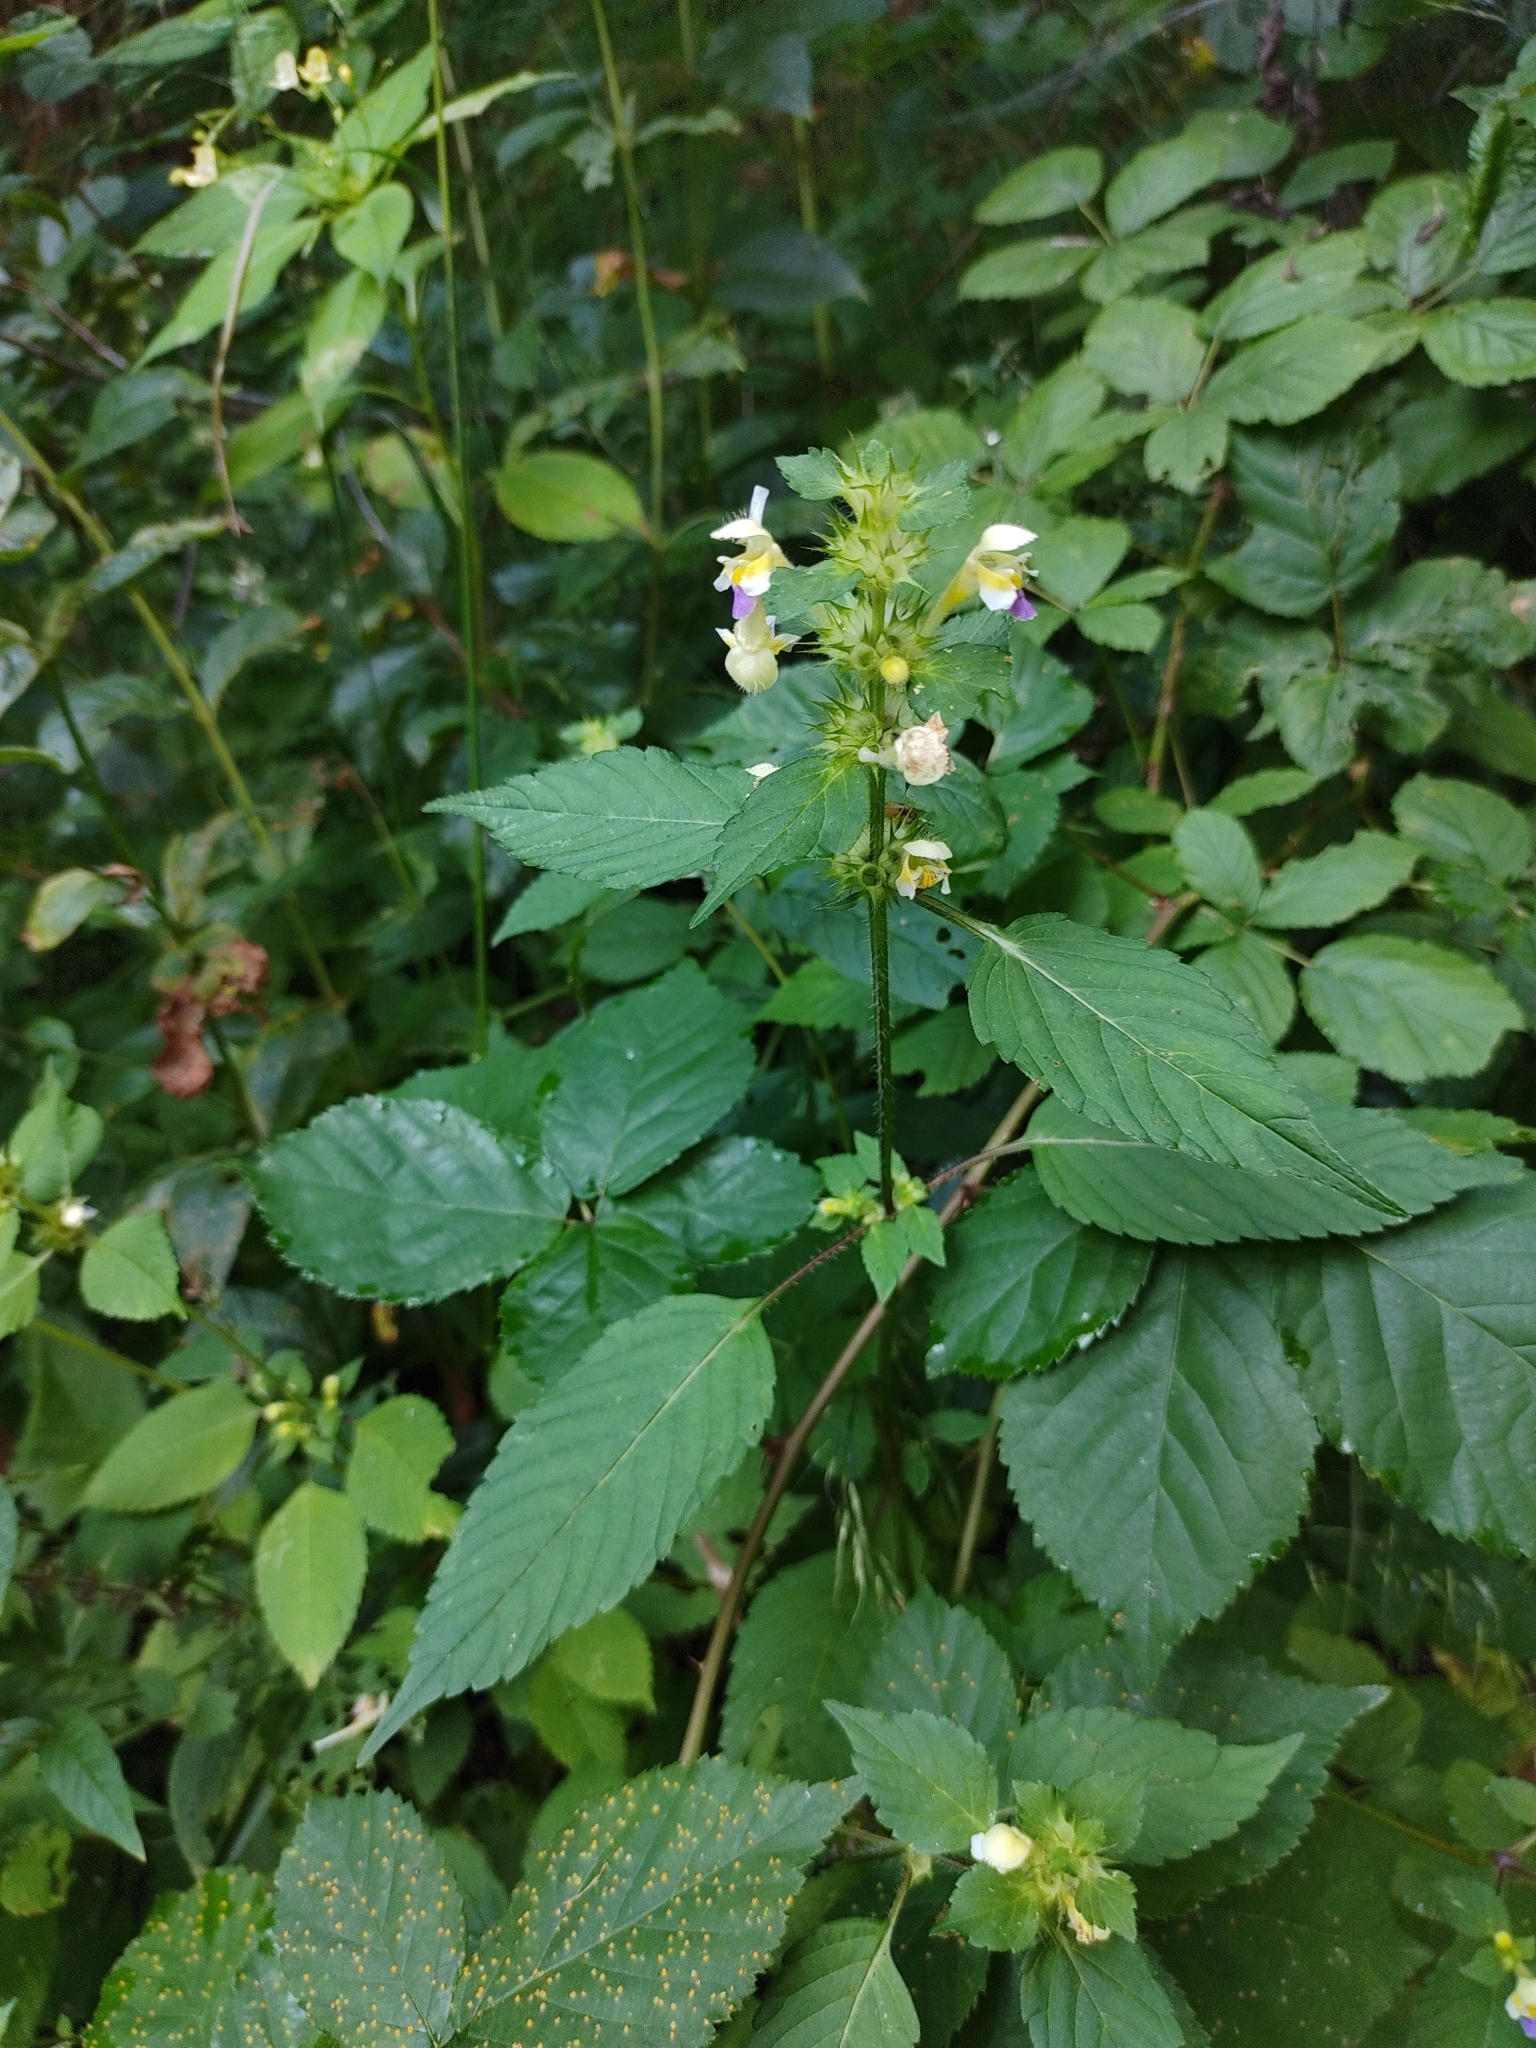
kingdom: Plantae
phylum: Tracheophyta
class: Magnoliopsida
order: Lamiales
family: Lamiaceae
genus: Galeopsis
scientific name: Galeopsis speciosa
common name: Large-flowered hemp-nettle
